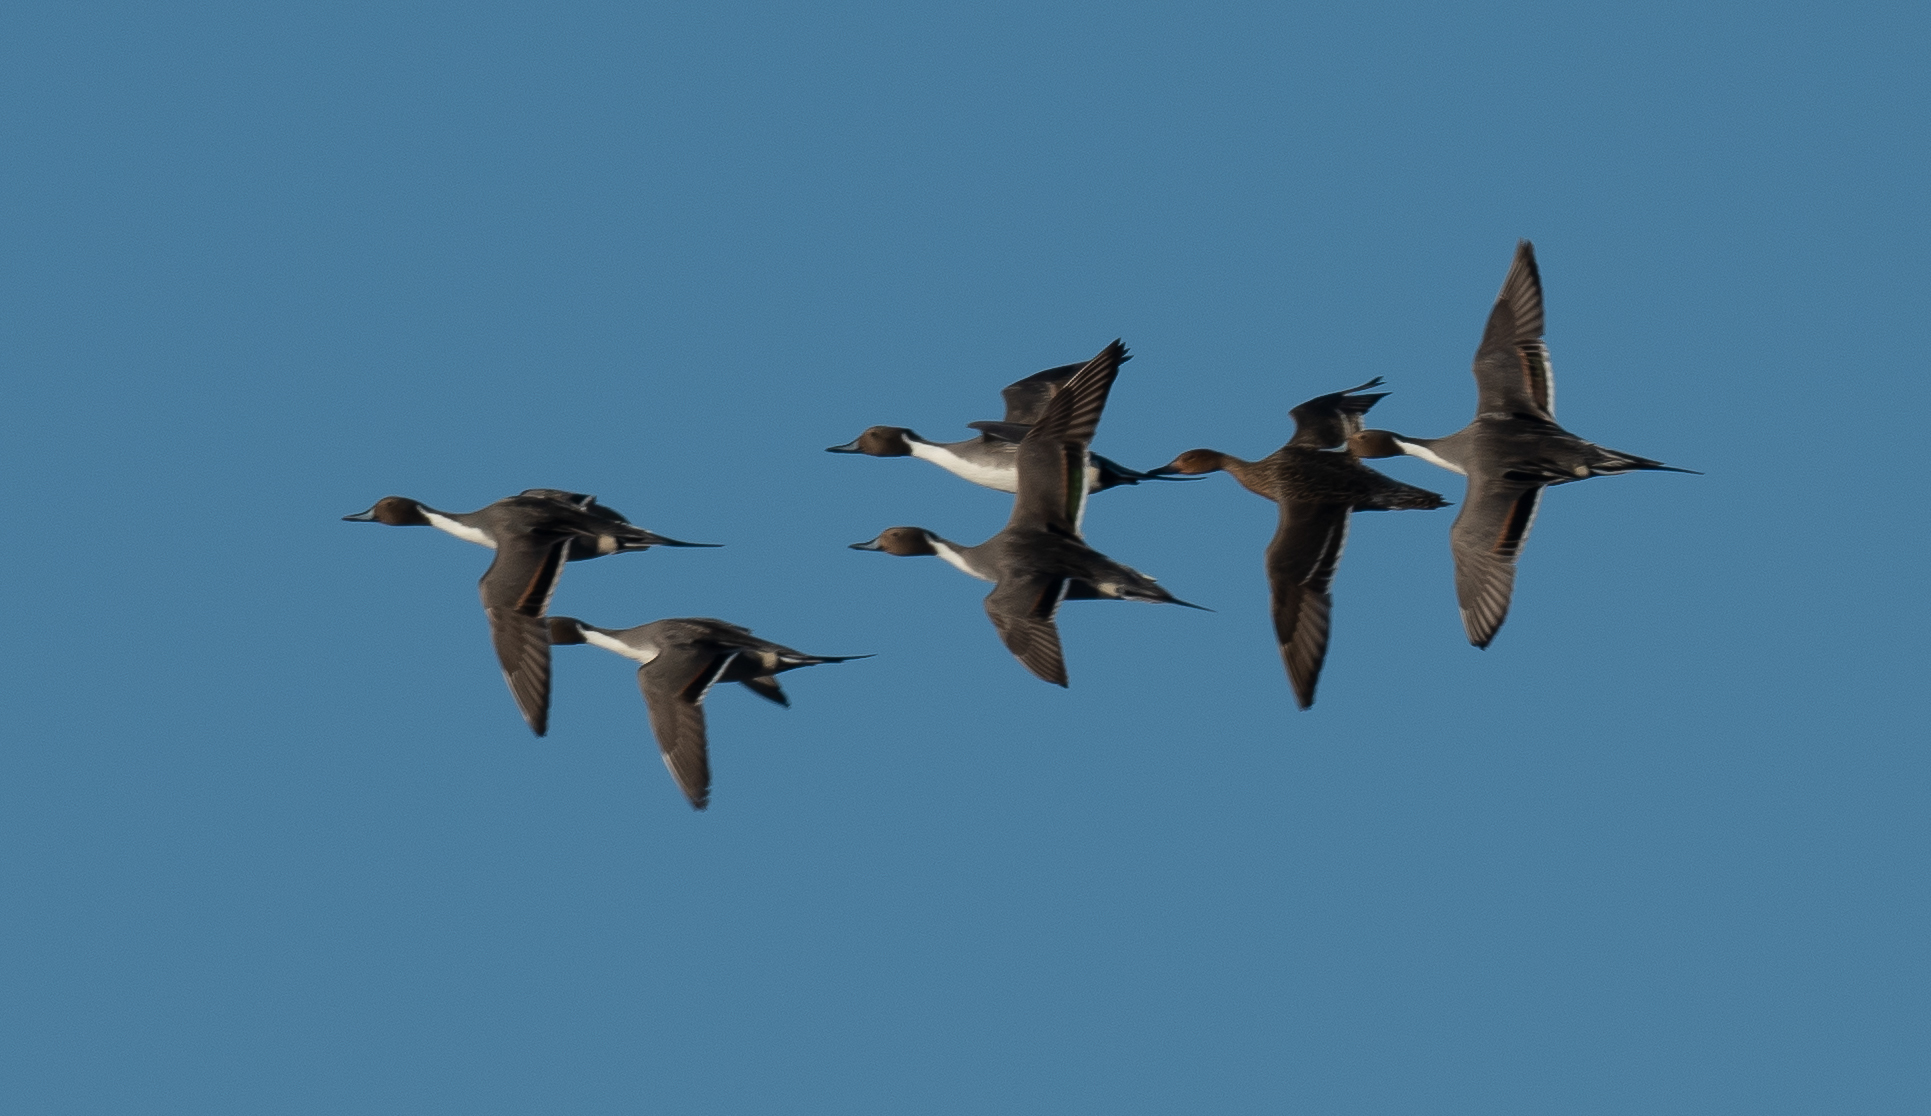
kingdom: Animalia
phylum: Chordata
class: Aves
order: Anseriformes
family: Anatidae
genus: Anas
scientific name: Anas acuta
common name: Northern pintail
